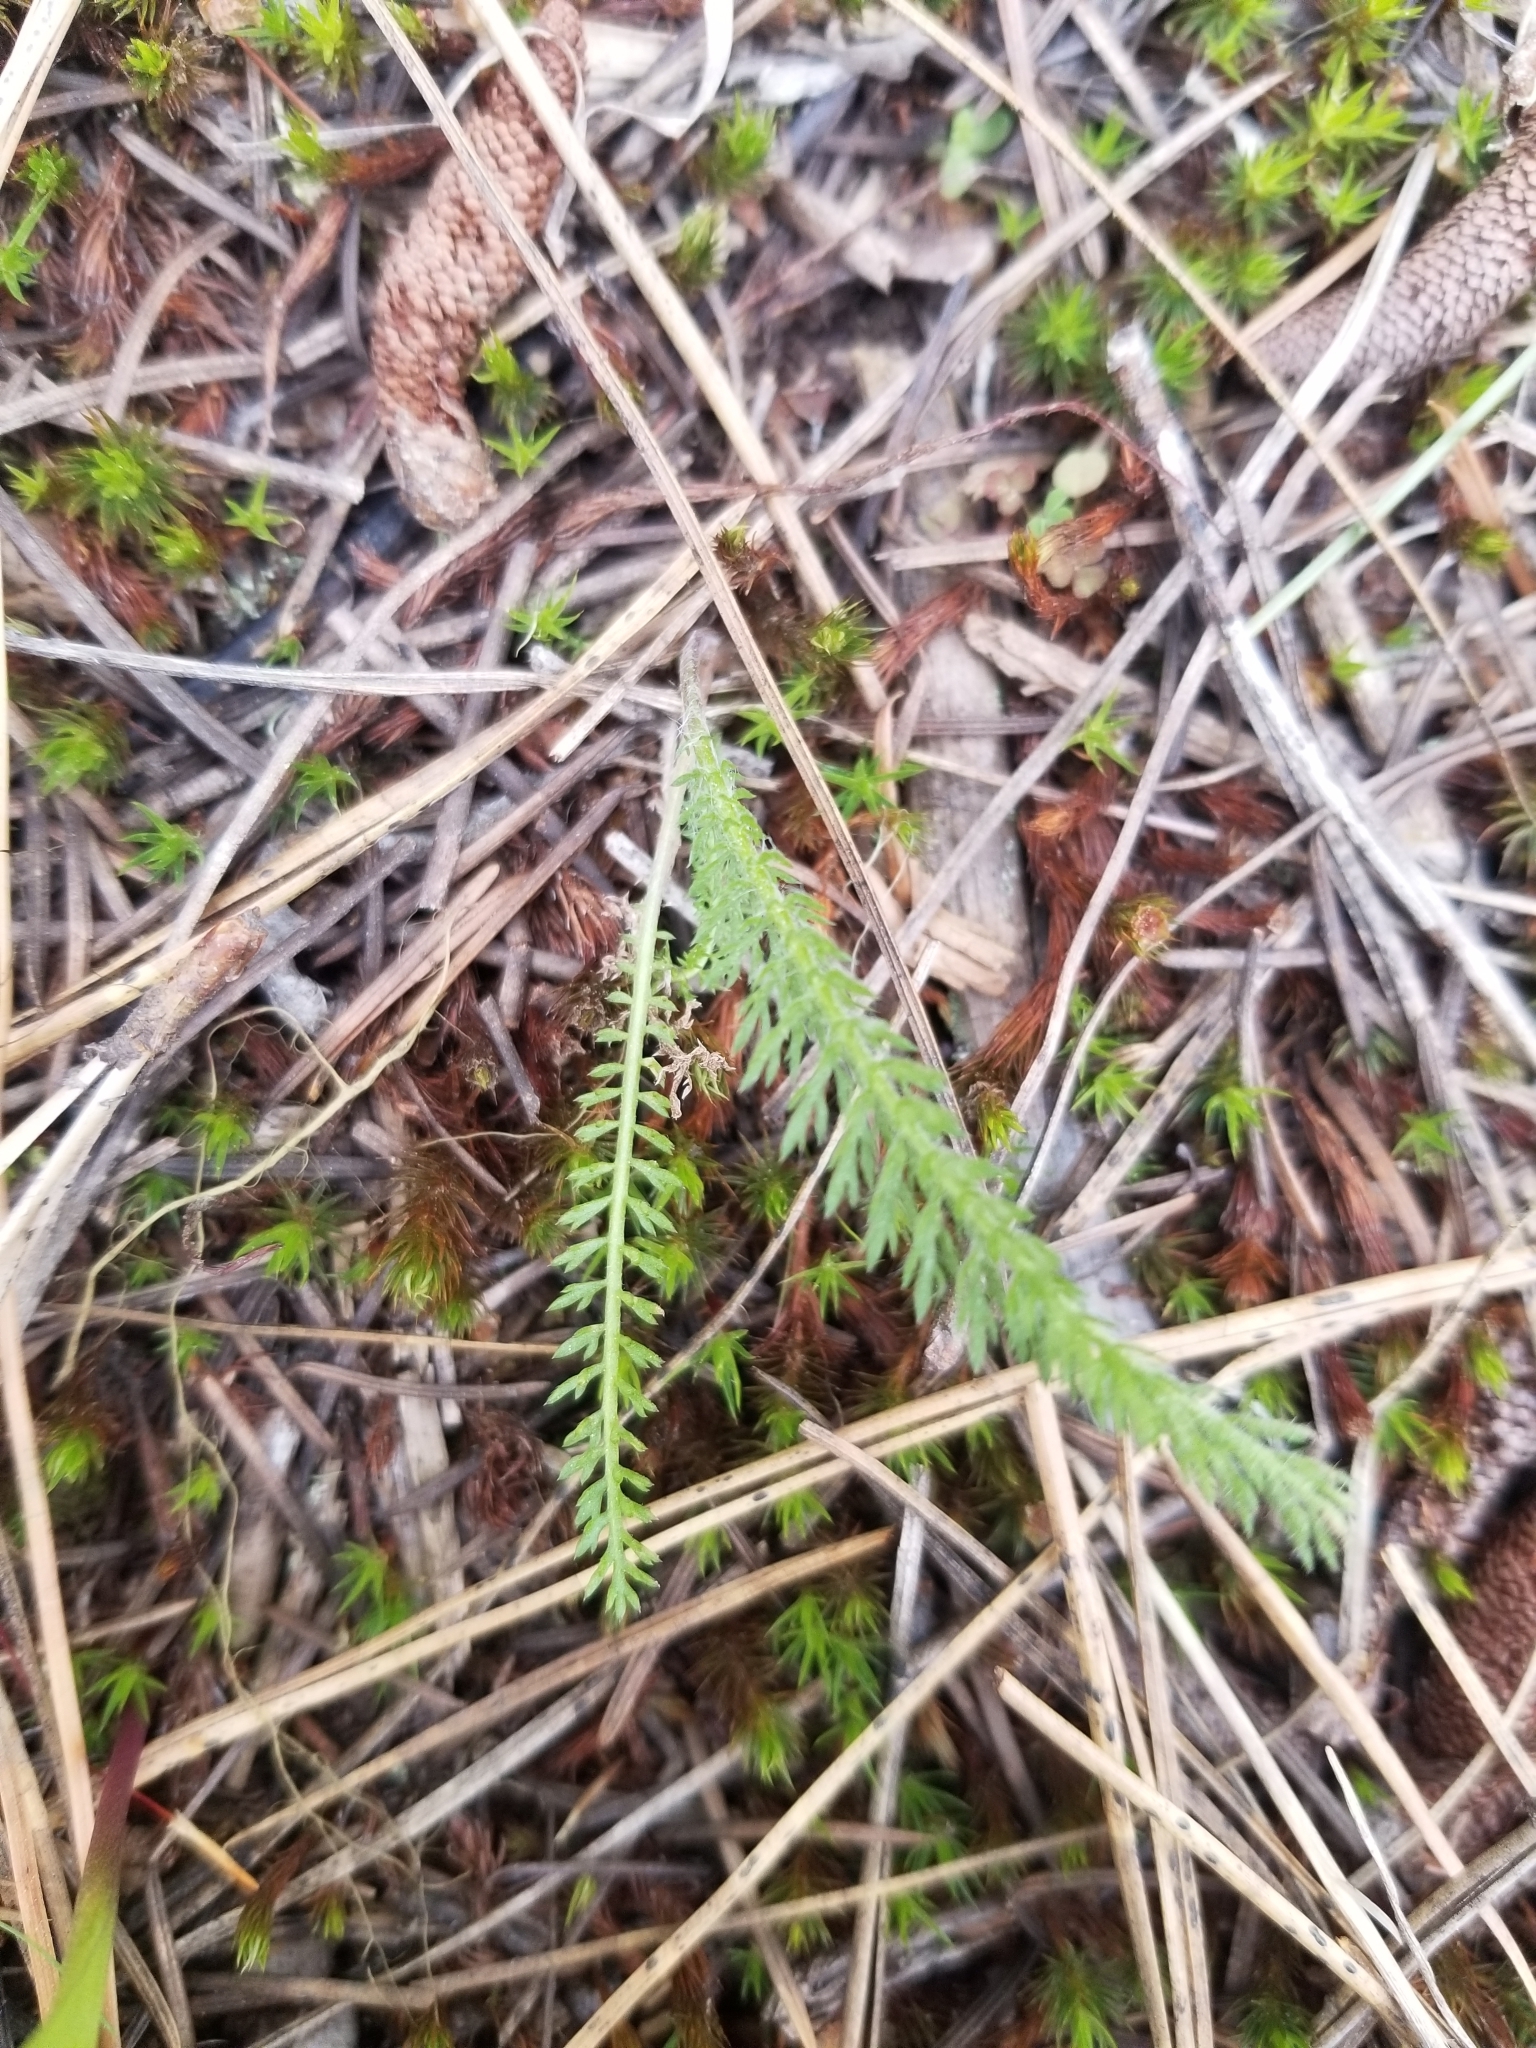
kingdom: Plantae
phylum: Tracheophyta
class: Magnoliopsida
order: Asterales
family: Asteraceae
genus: Achillea
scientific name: Achillea millefolium
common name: Yarrow
